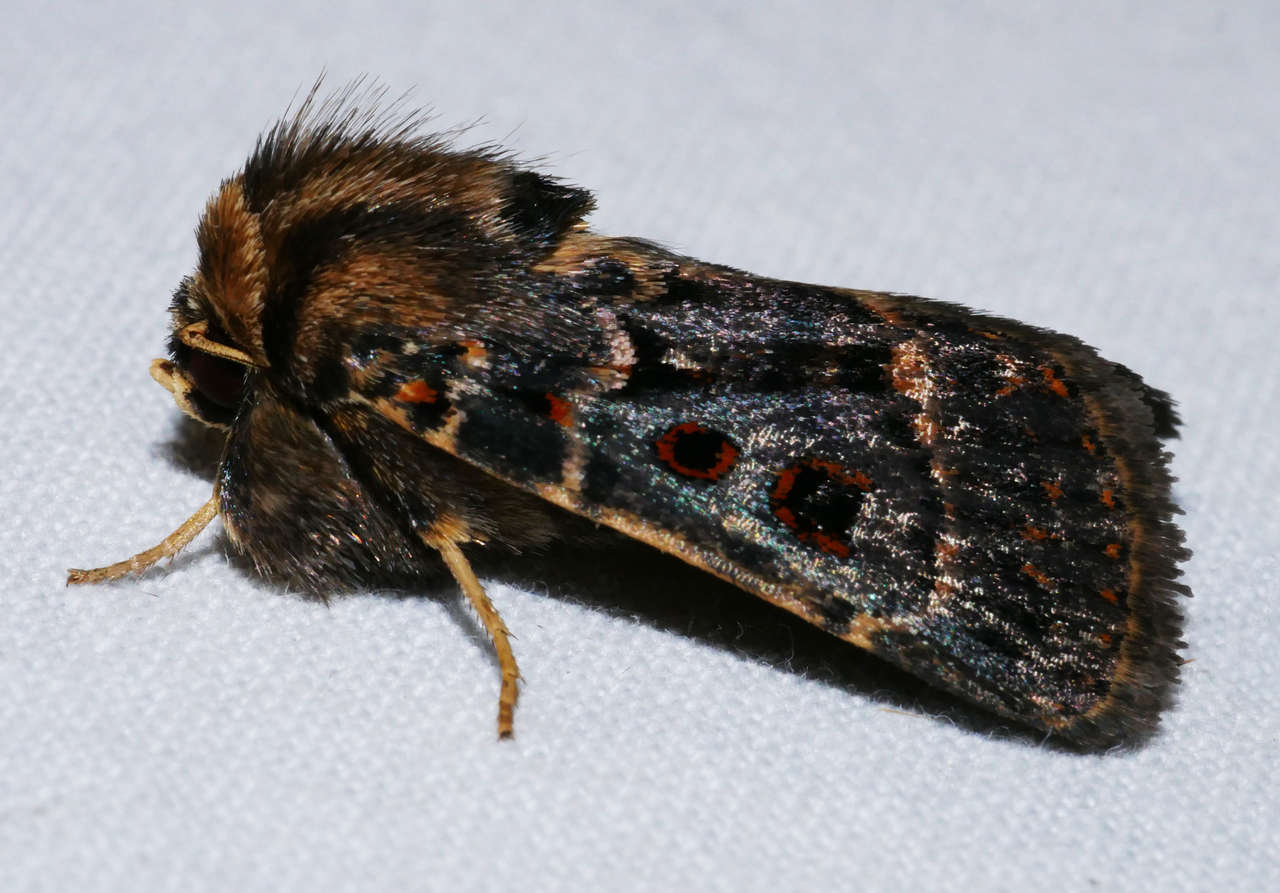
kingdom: Animalia
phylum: Arthropoda
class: Insecta
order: Lepidoptera
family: Noctuidae
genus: Proteuxoa
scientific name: Proteuxoa sanguinipuncta
